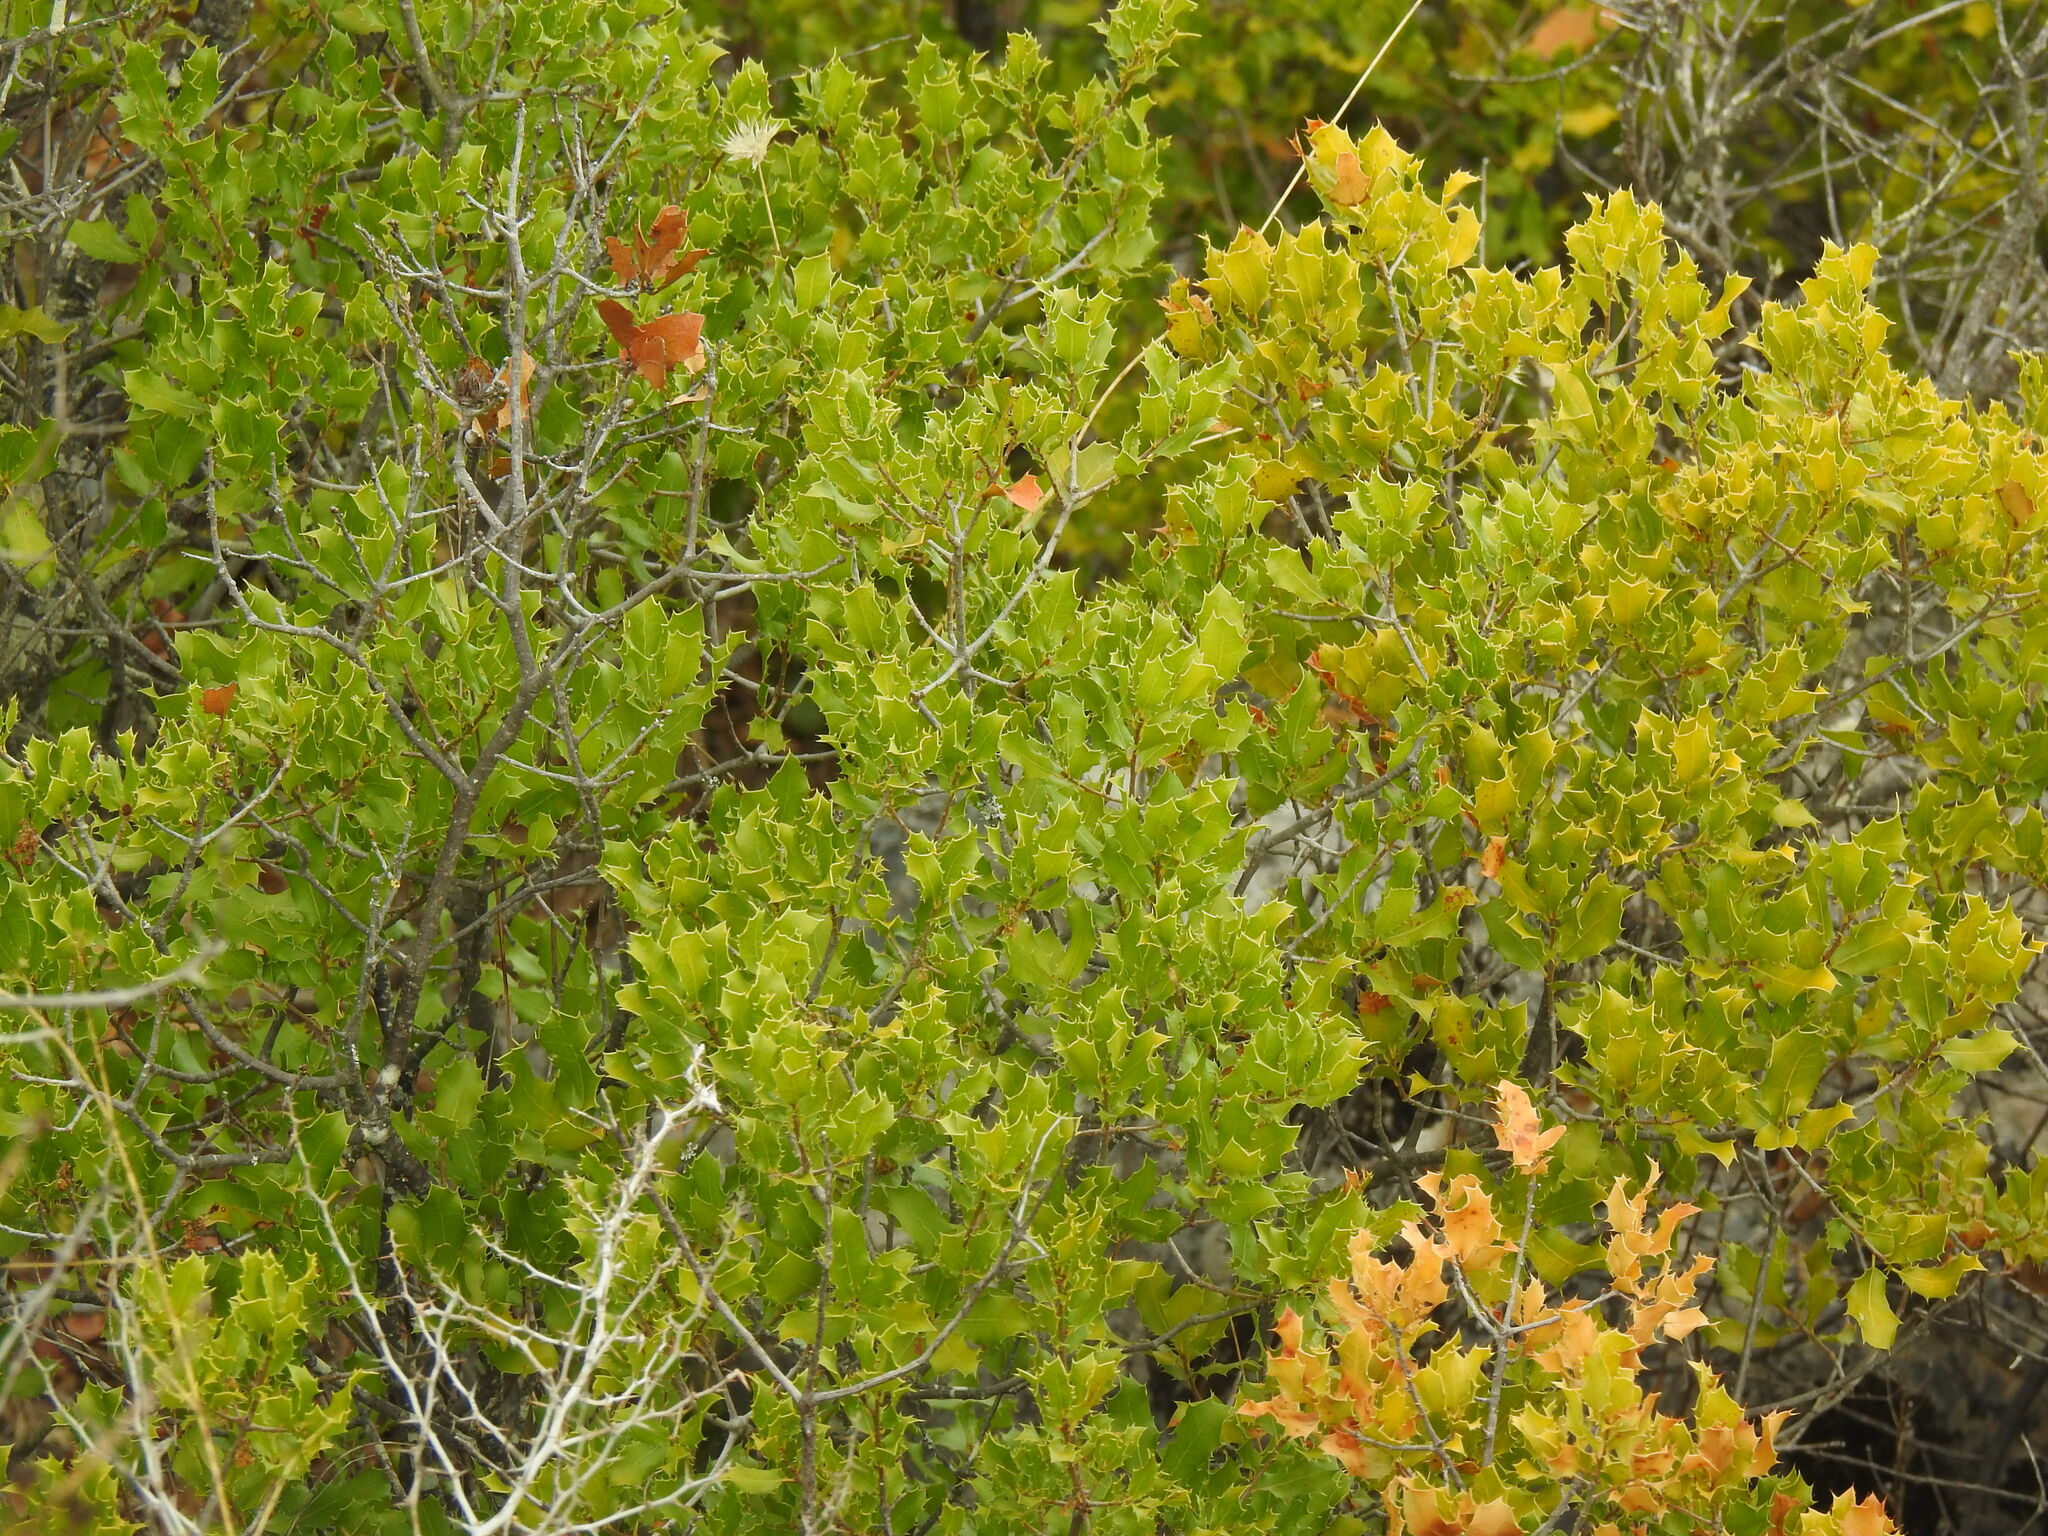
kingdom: Plantae
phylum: Tracheophyta
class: Magnoliopsida
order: Fagales
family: Fagaceae
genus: Quercus
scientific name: Quercus coccifera
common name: Kermes oak
